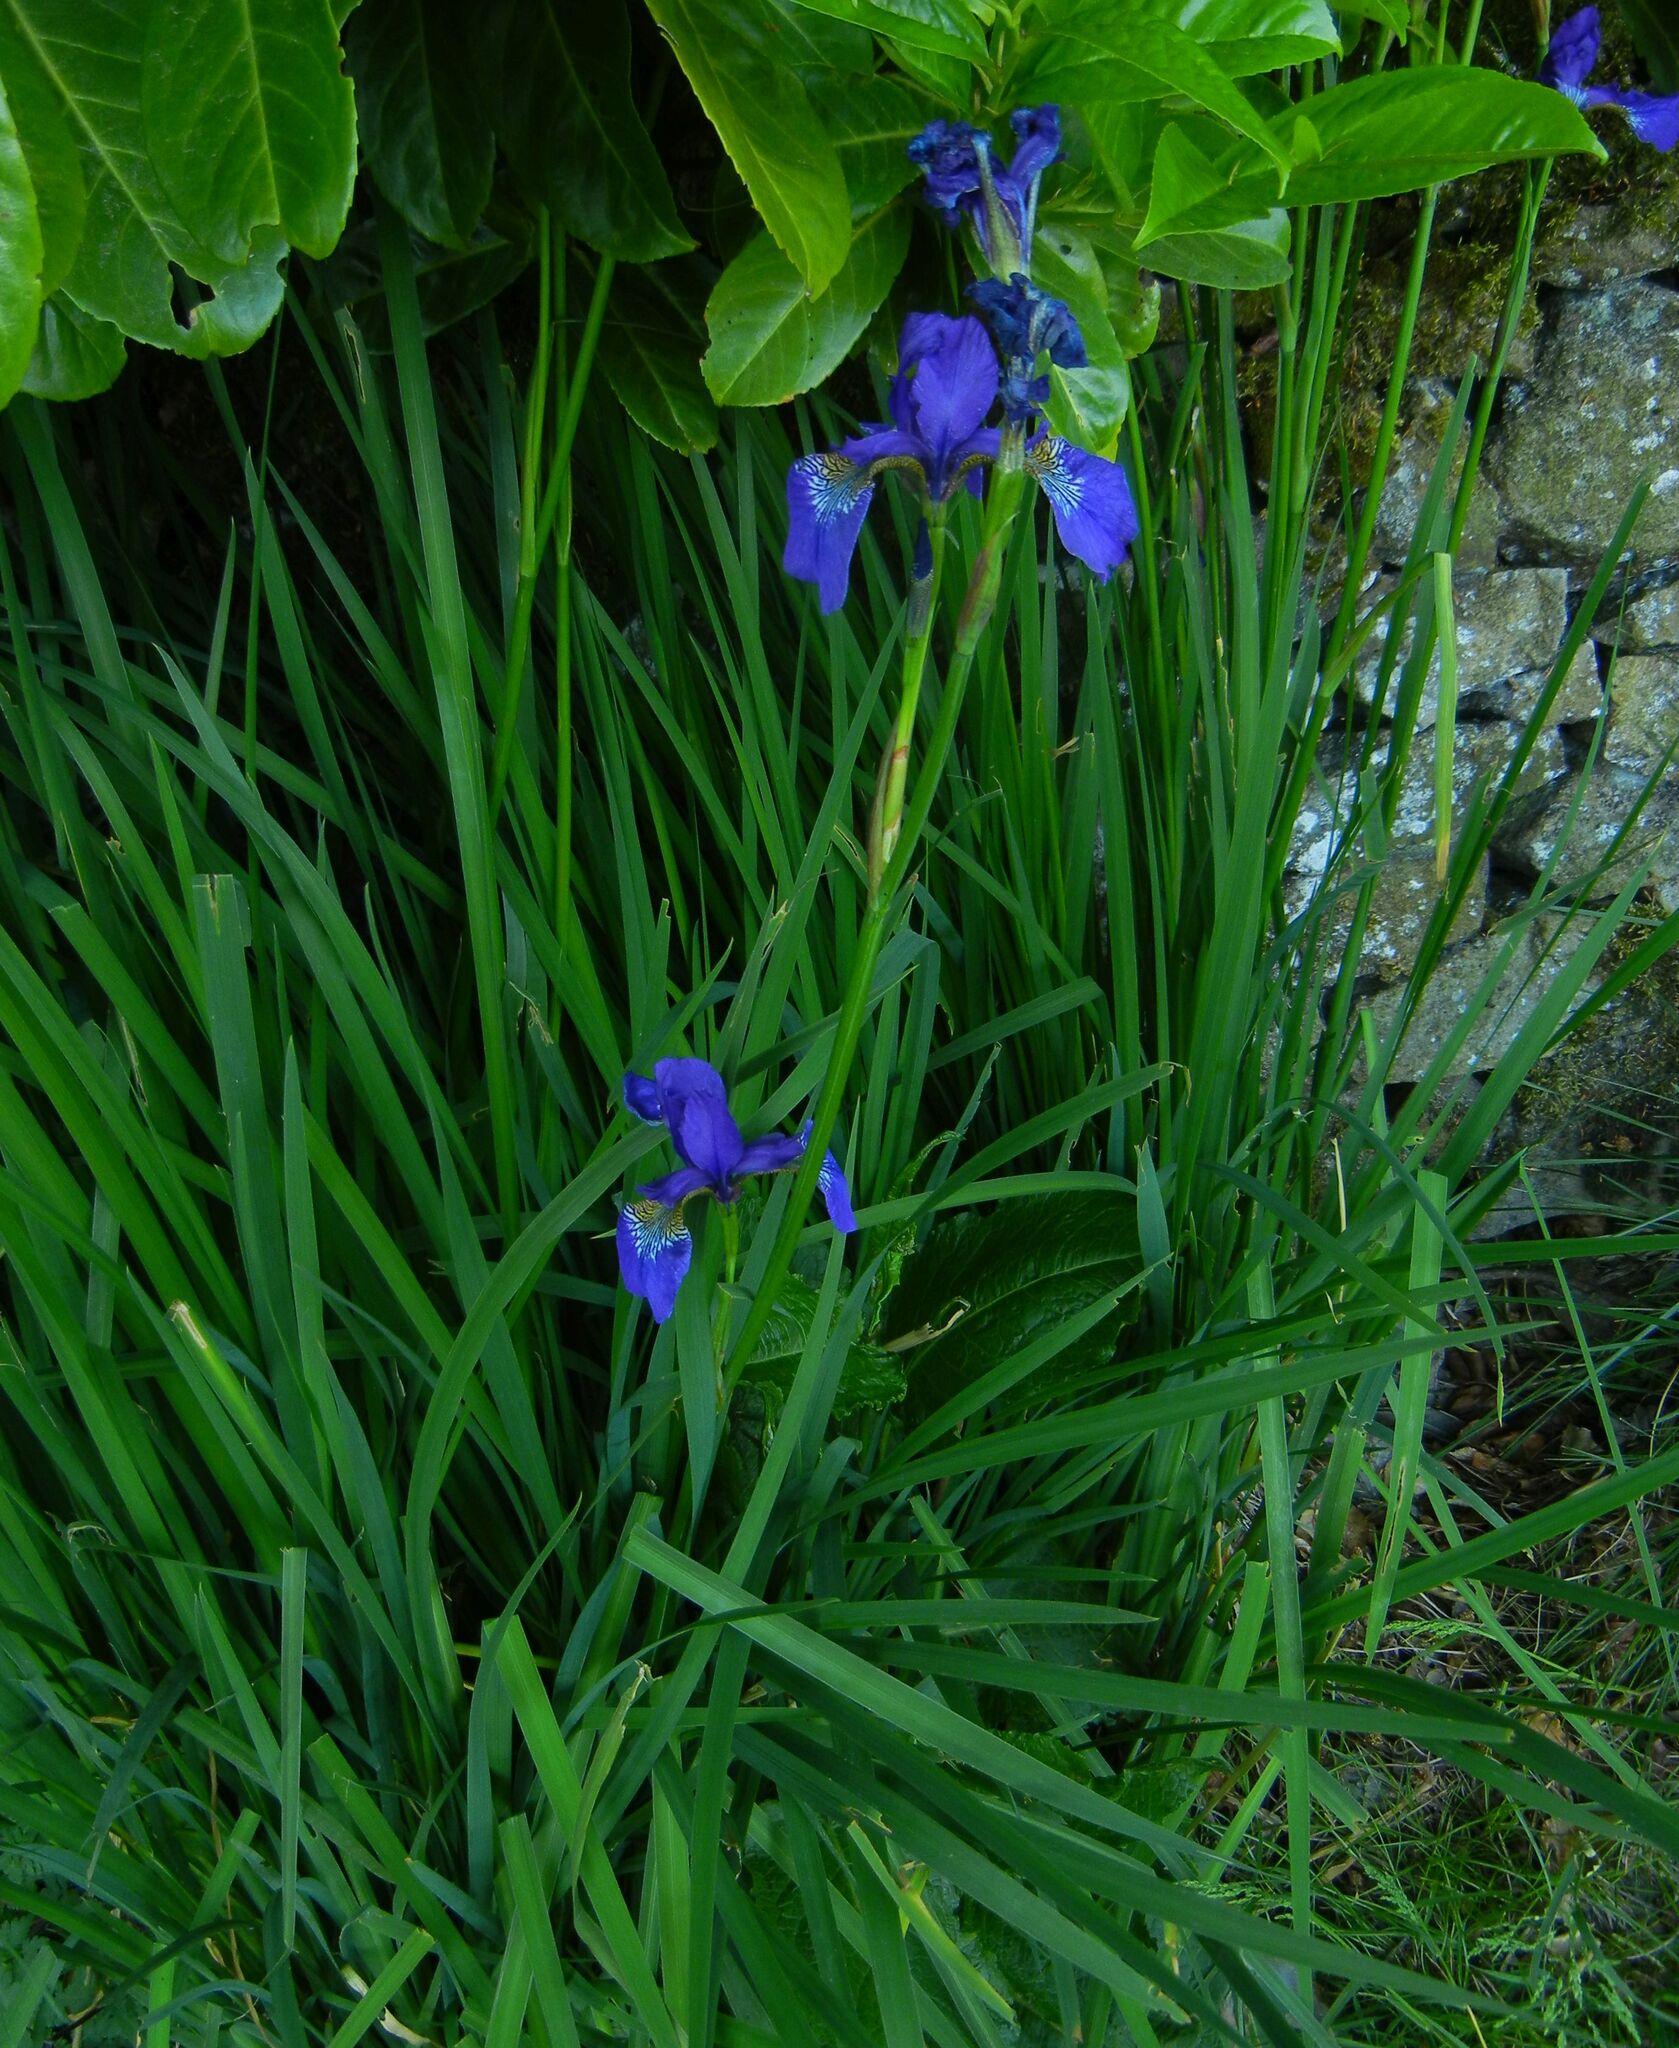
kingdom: Plantae
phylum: Tracheophyta
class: Liliopsida
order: Asparagales
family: Iridaceae
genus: Iris
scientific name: Iris sanguinea
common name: Blood iris
